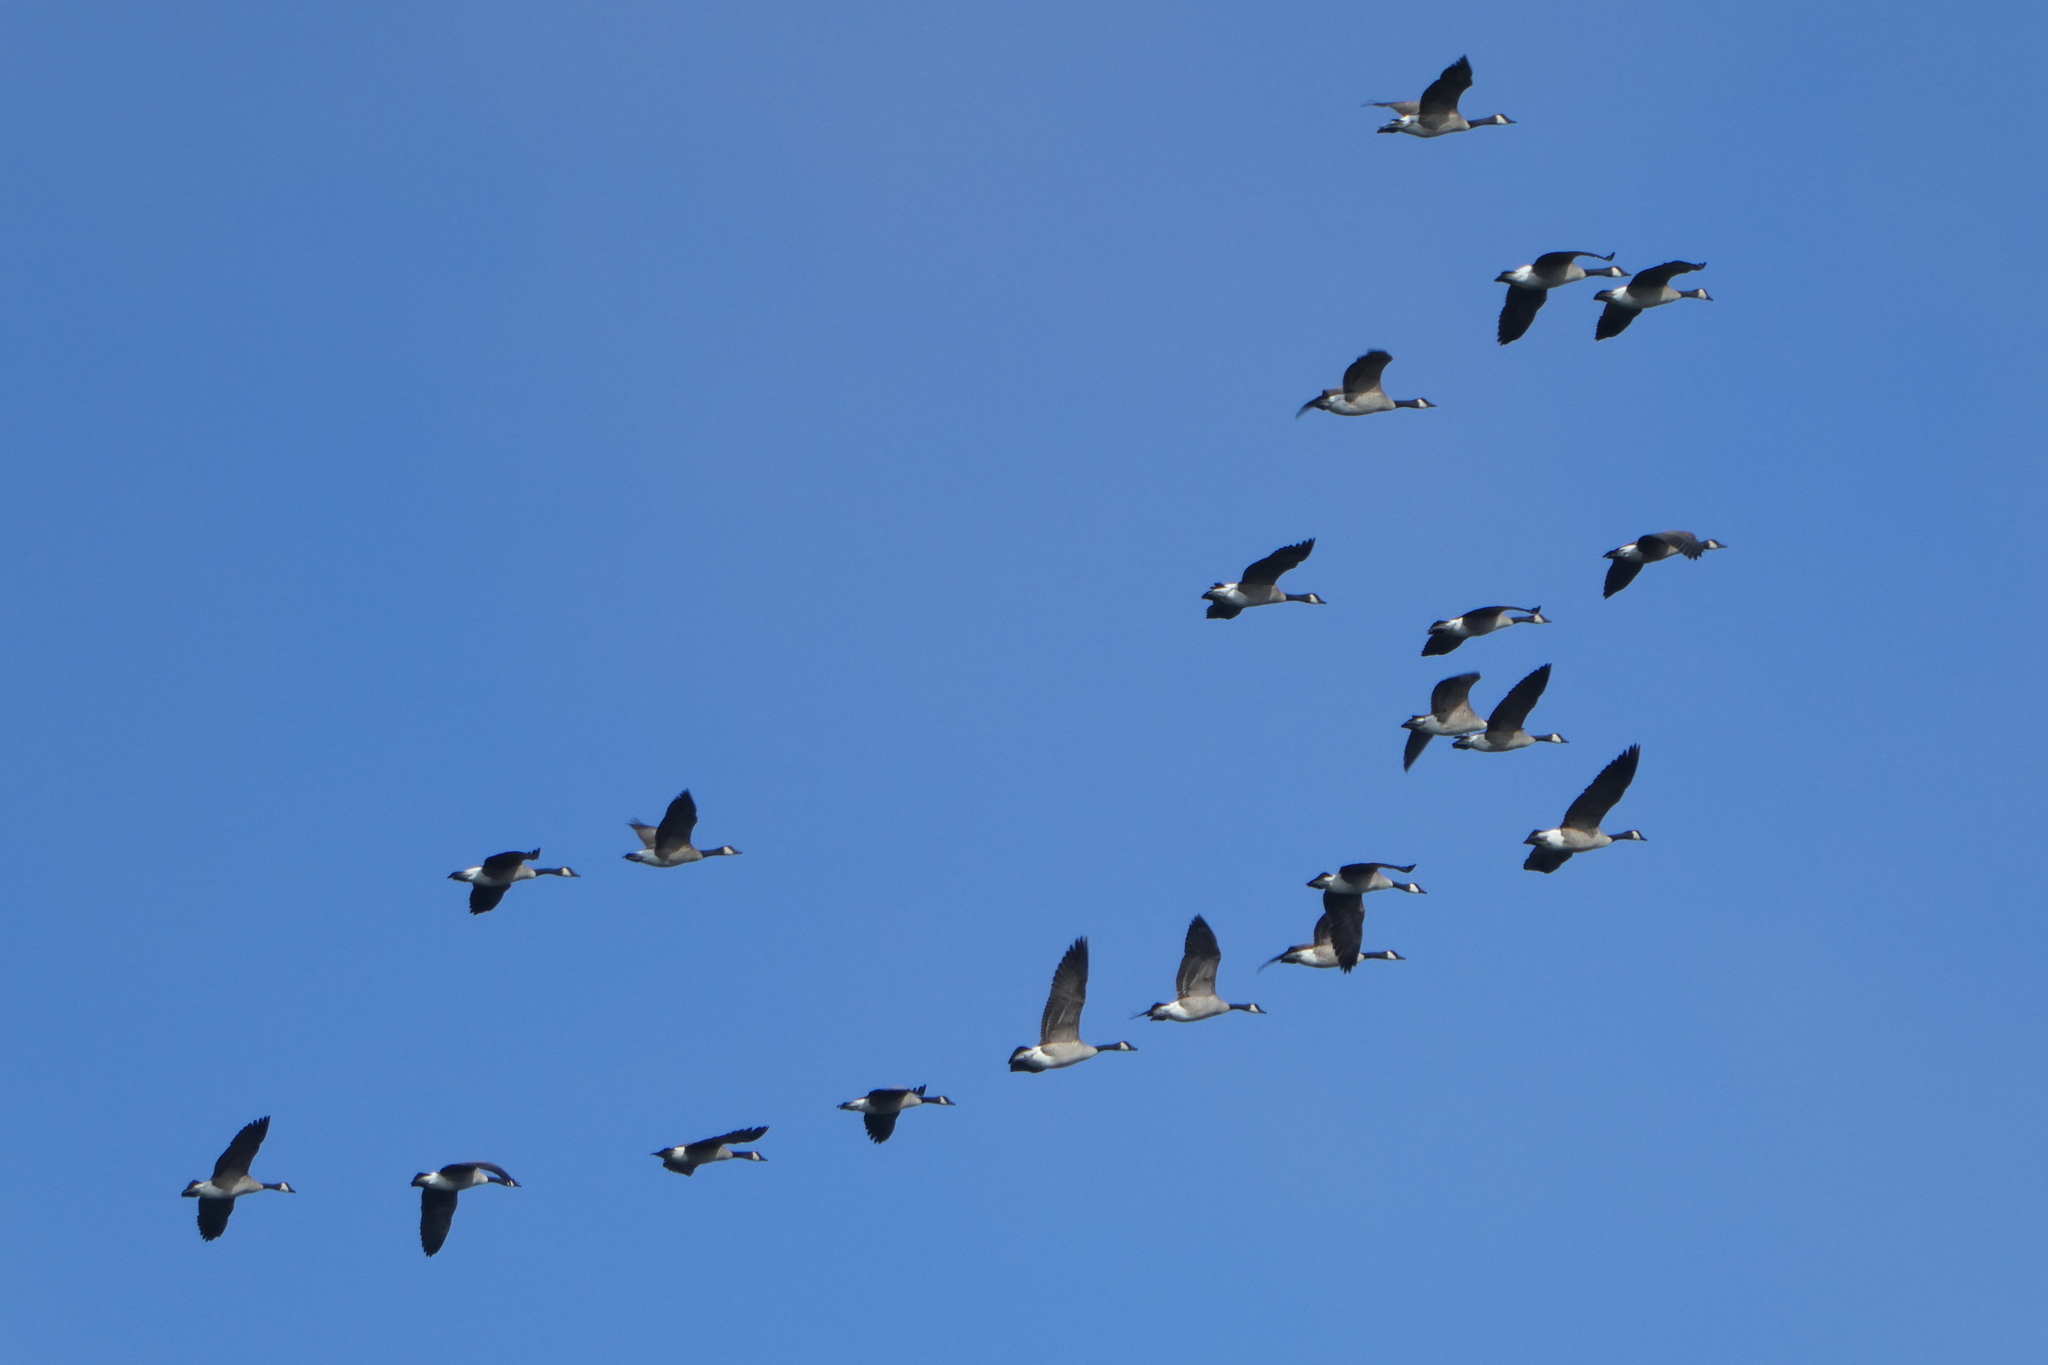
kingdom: Animalia
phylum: Chordata
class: Aves
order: Anseriformes
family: Anatidae
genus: Branta
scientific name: Branta canadensis
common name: Canada goose
